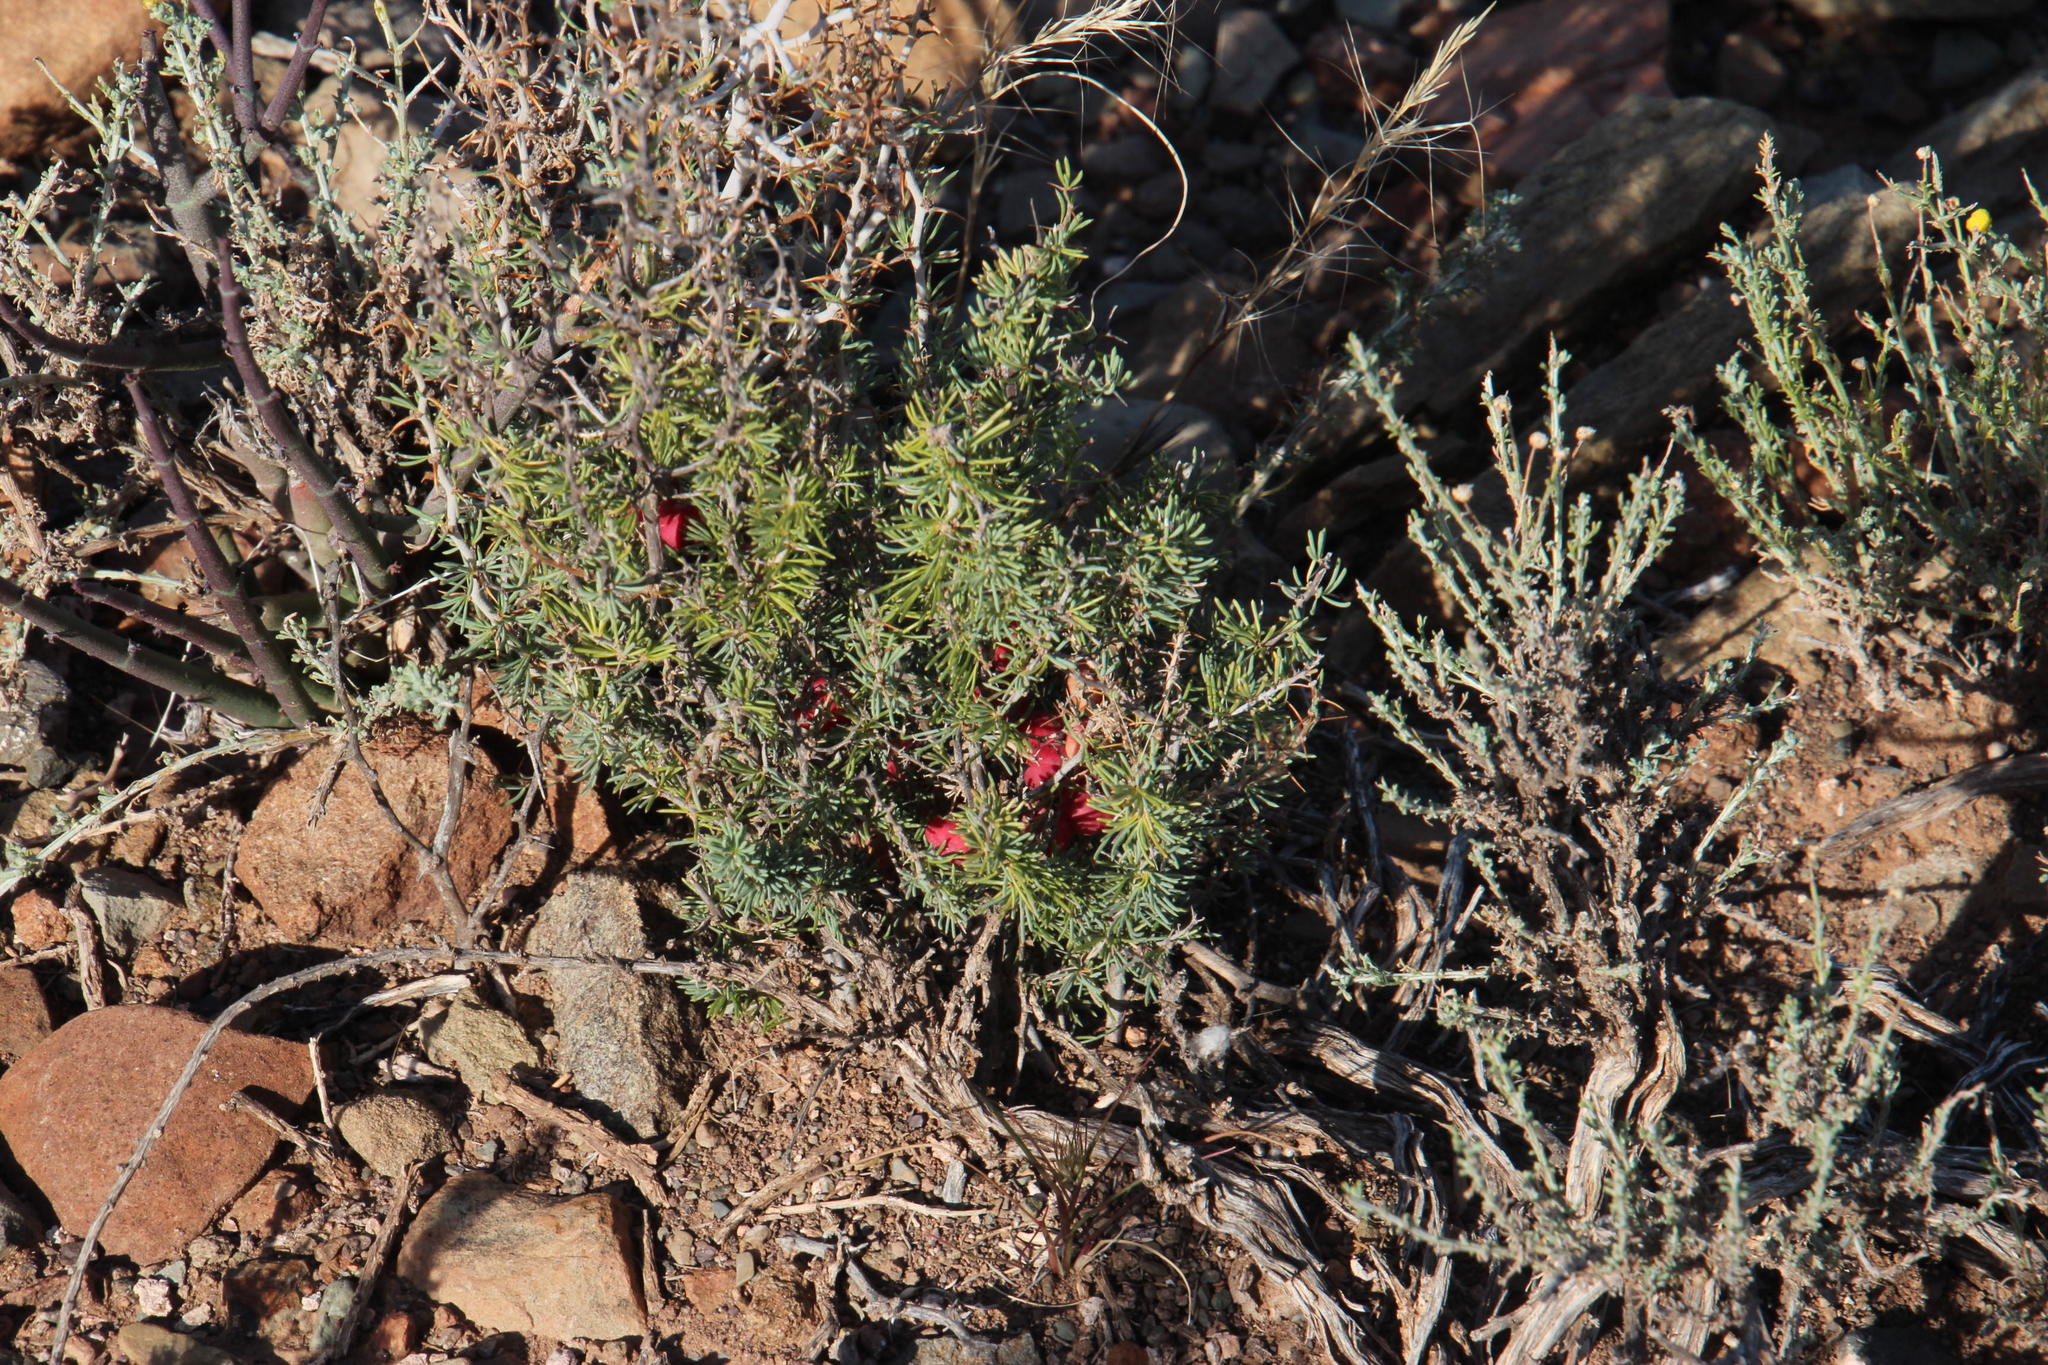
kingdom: Plantae
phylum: Tracheophyta
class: Liliopsida
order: Asparagales
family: Asparagaceae
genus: Asparagus
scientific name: Asparagus acocksii
